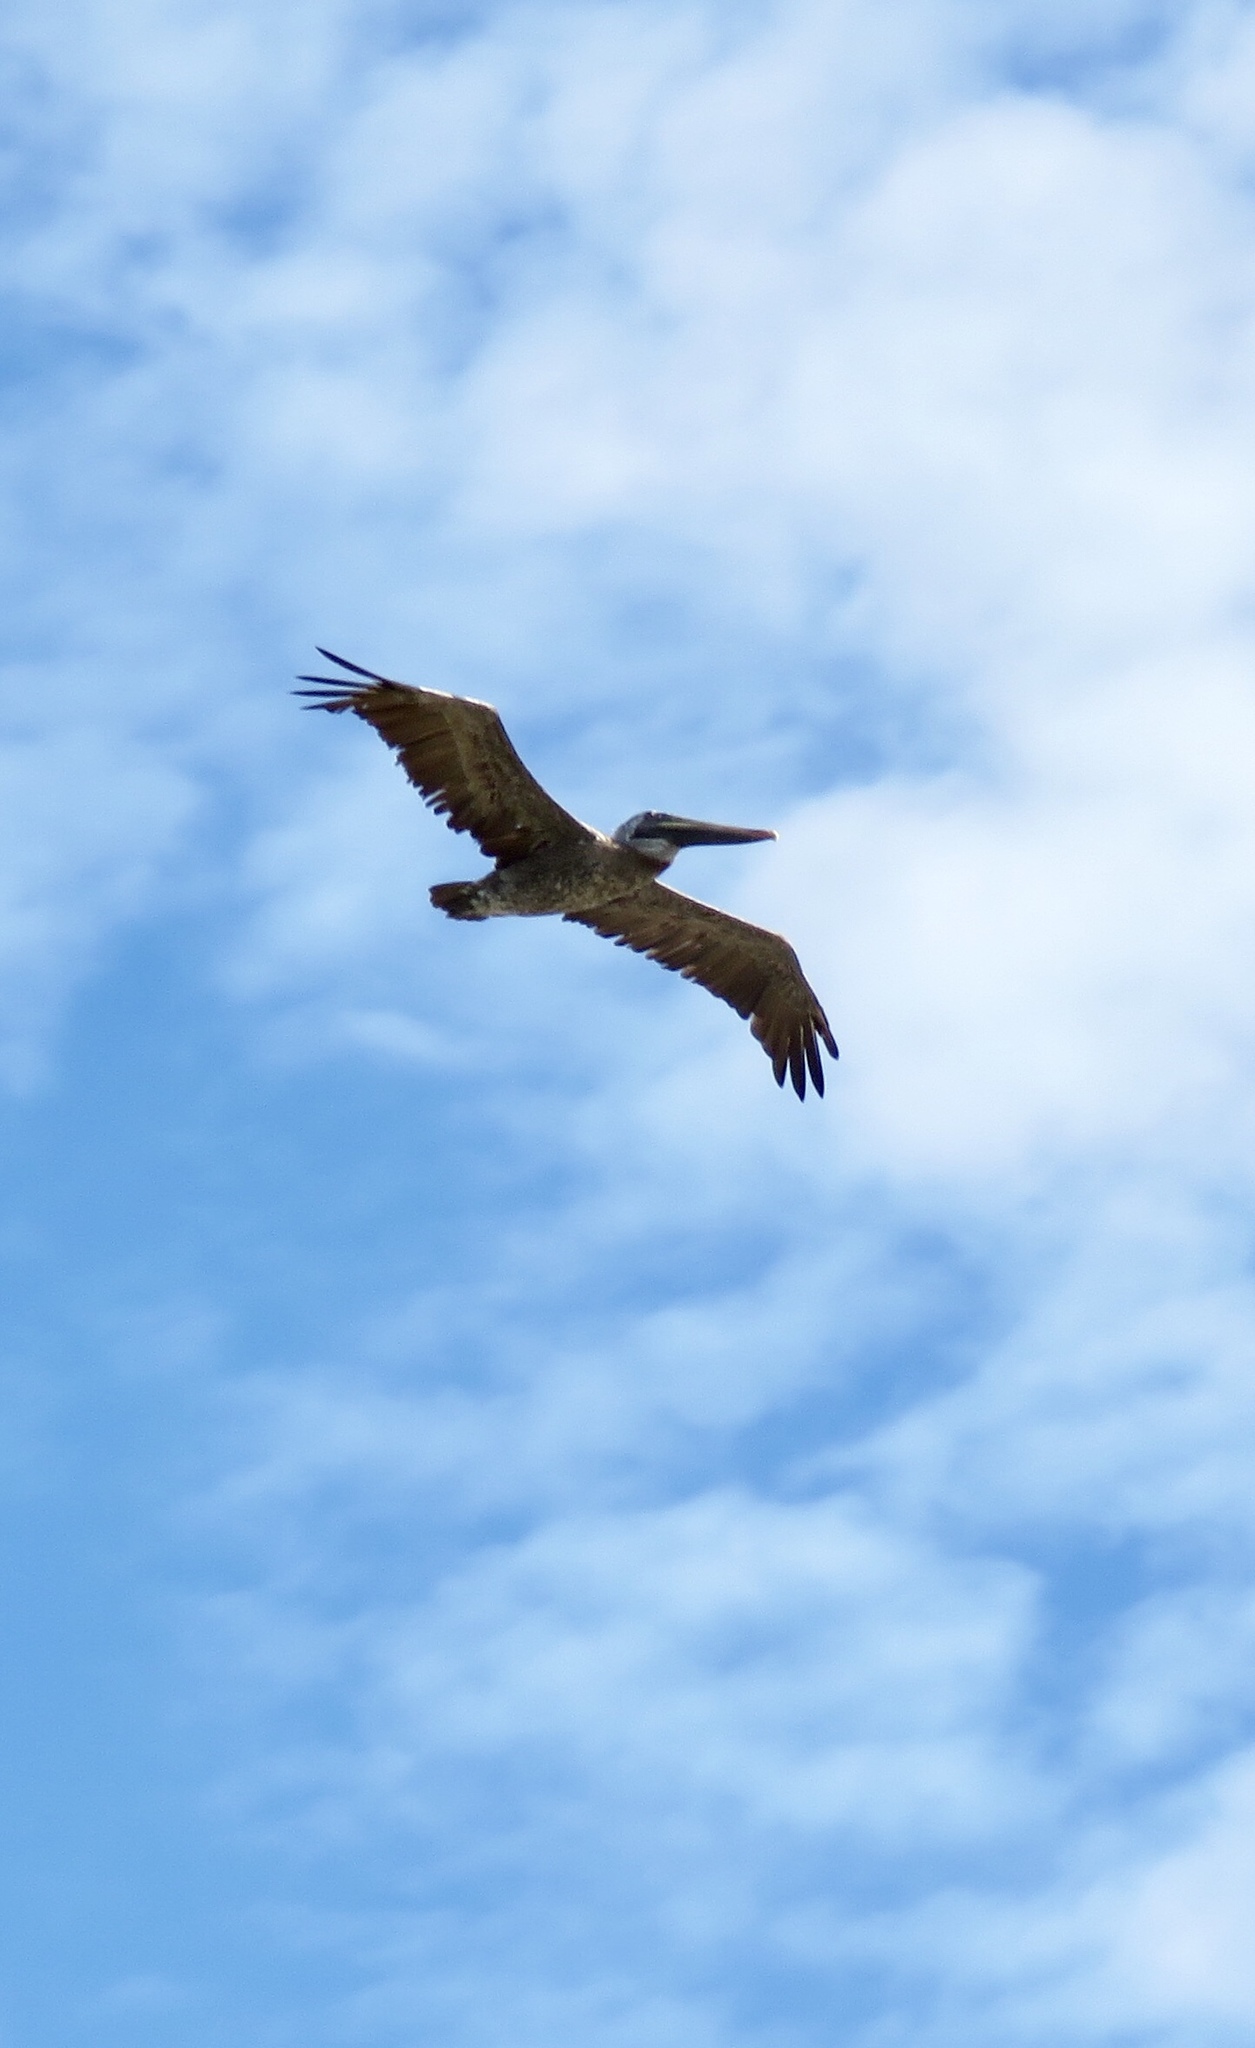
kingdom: Animalia
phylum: Chordata
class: Aves
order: Pelecaniformes
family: Pelecanidae
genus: Pelecanus
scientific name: Pelecanus occidentalis
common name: Brown pelican
